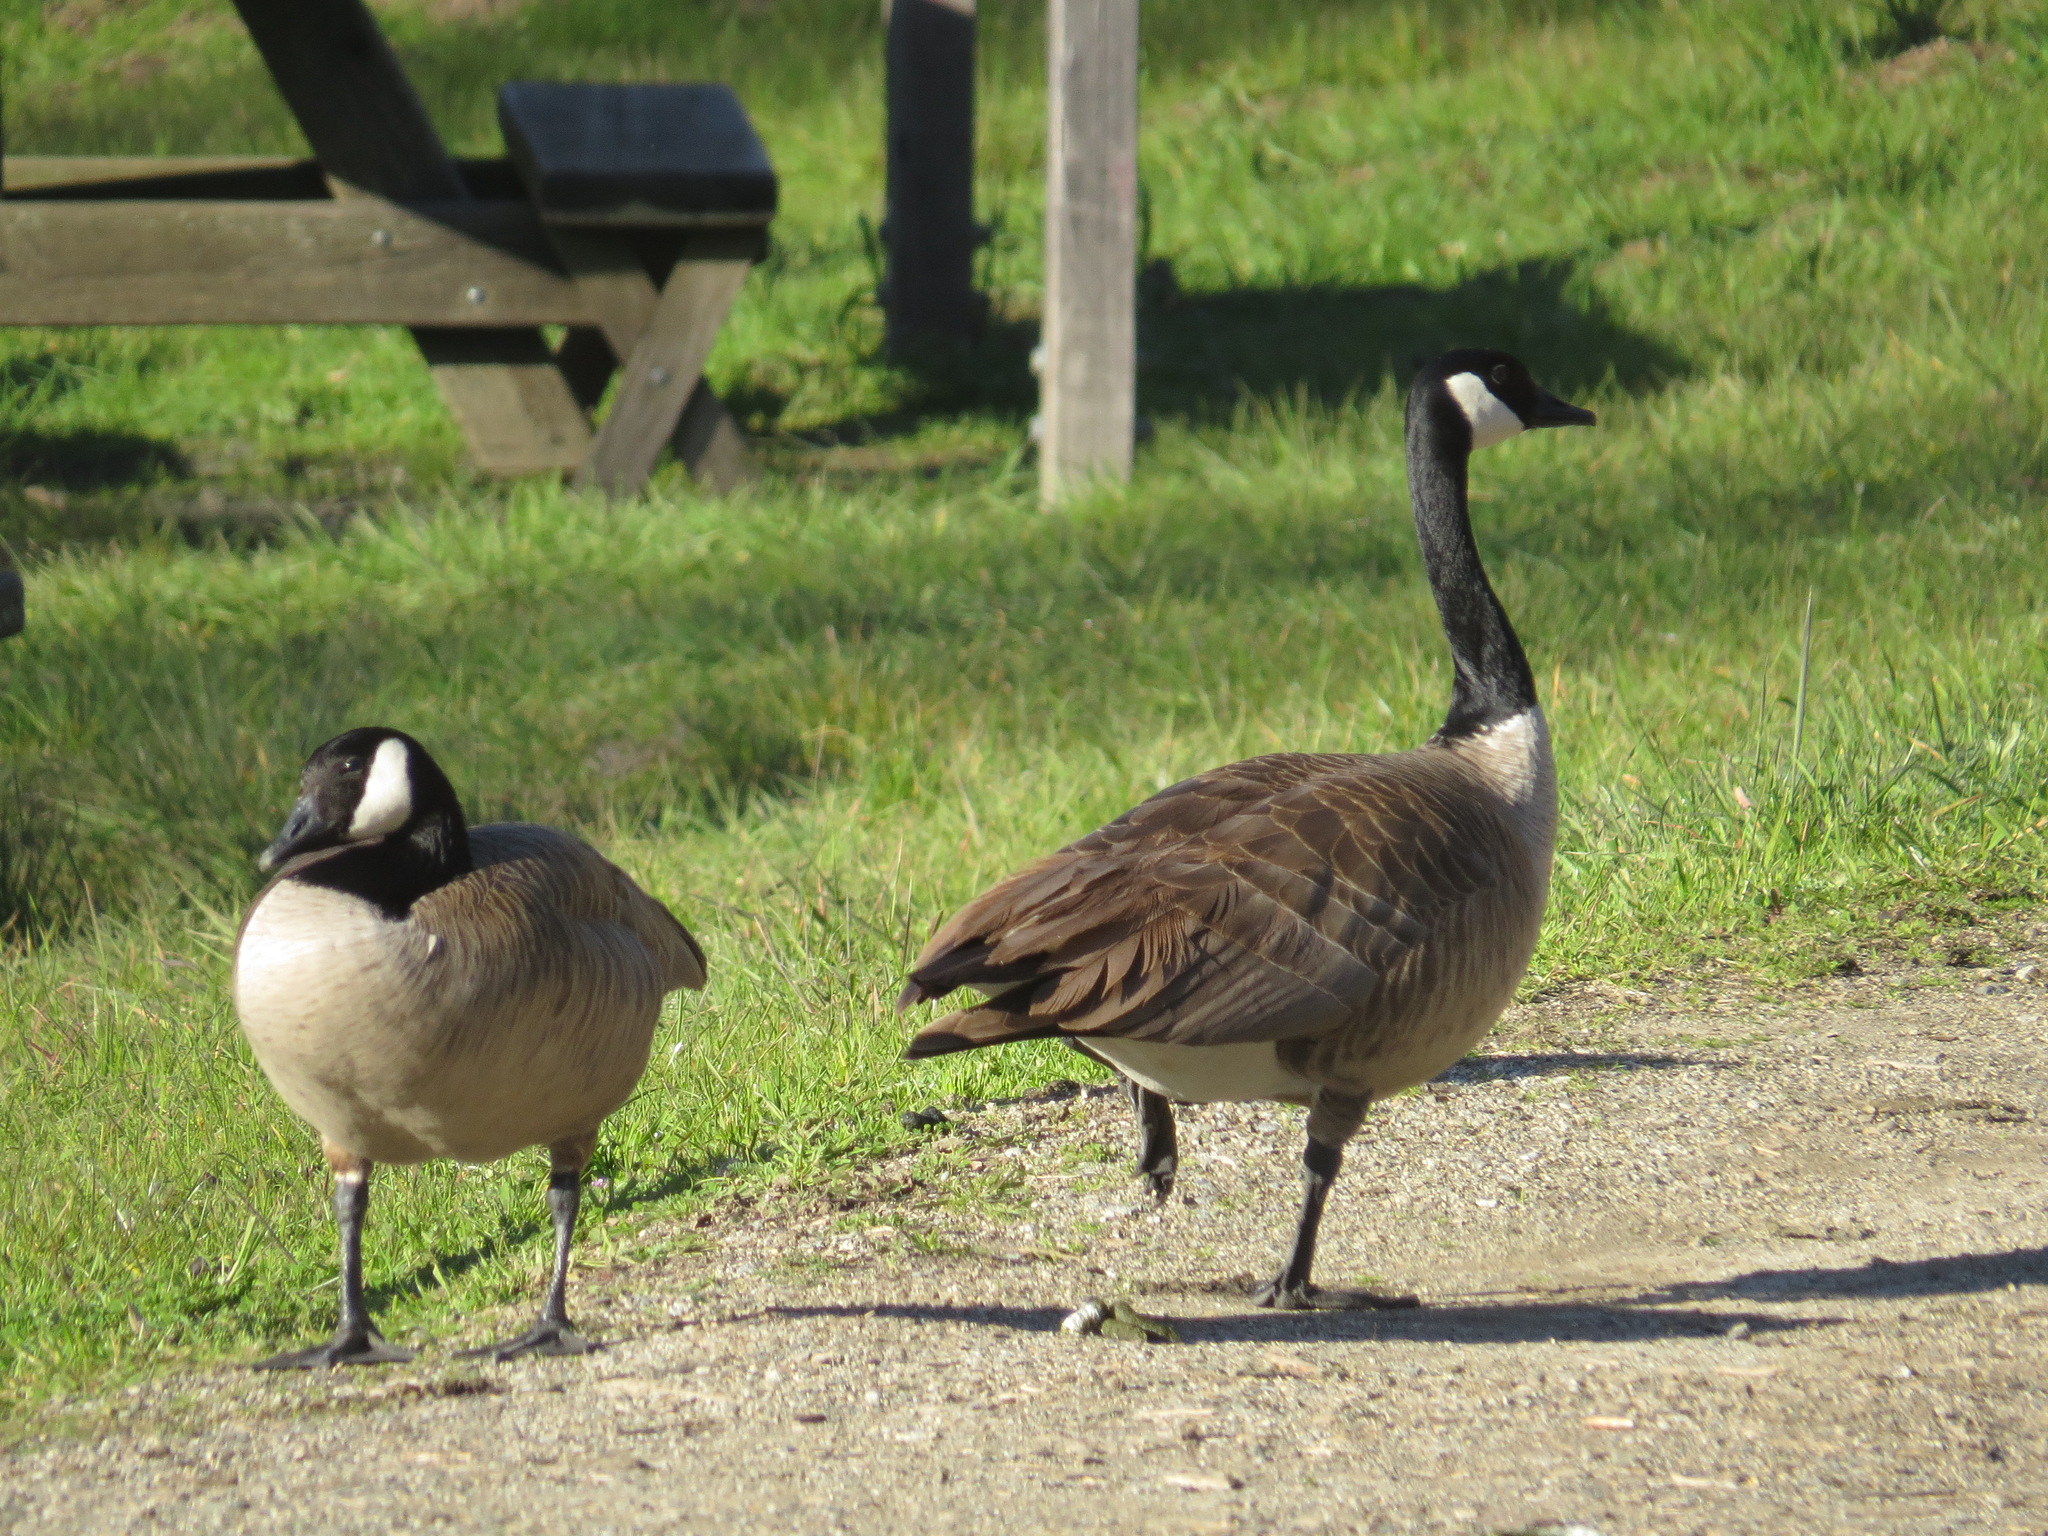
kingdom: Animalia
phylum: Chordata
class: Aves
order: Anseriformes
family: Anatidae
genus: Branta
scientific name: Branta canadensis
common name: Canada goose
